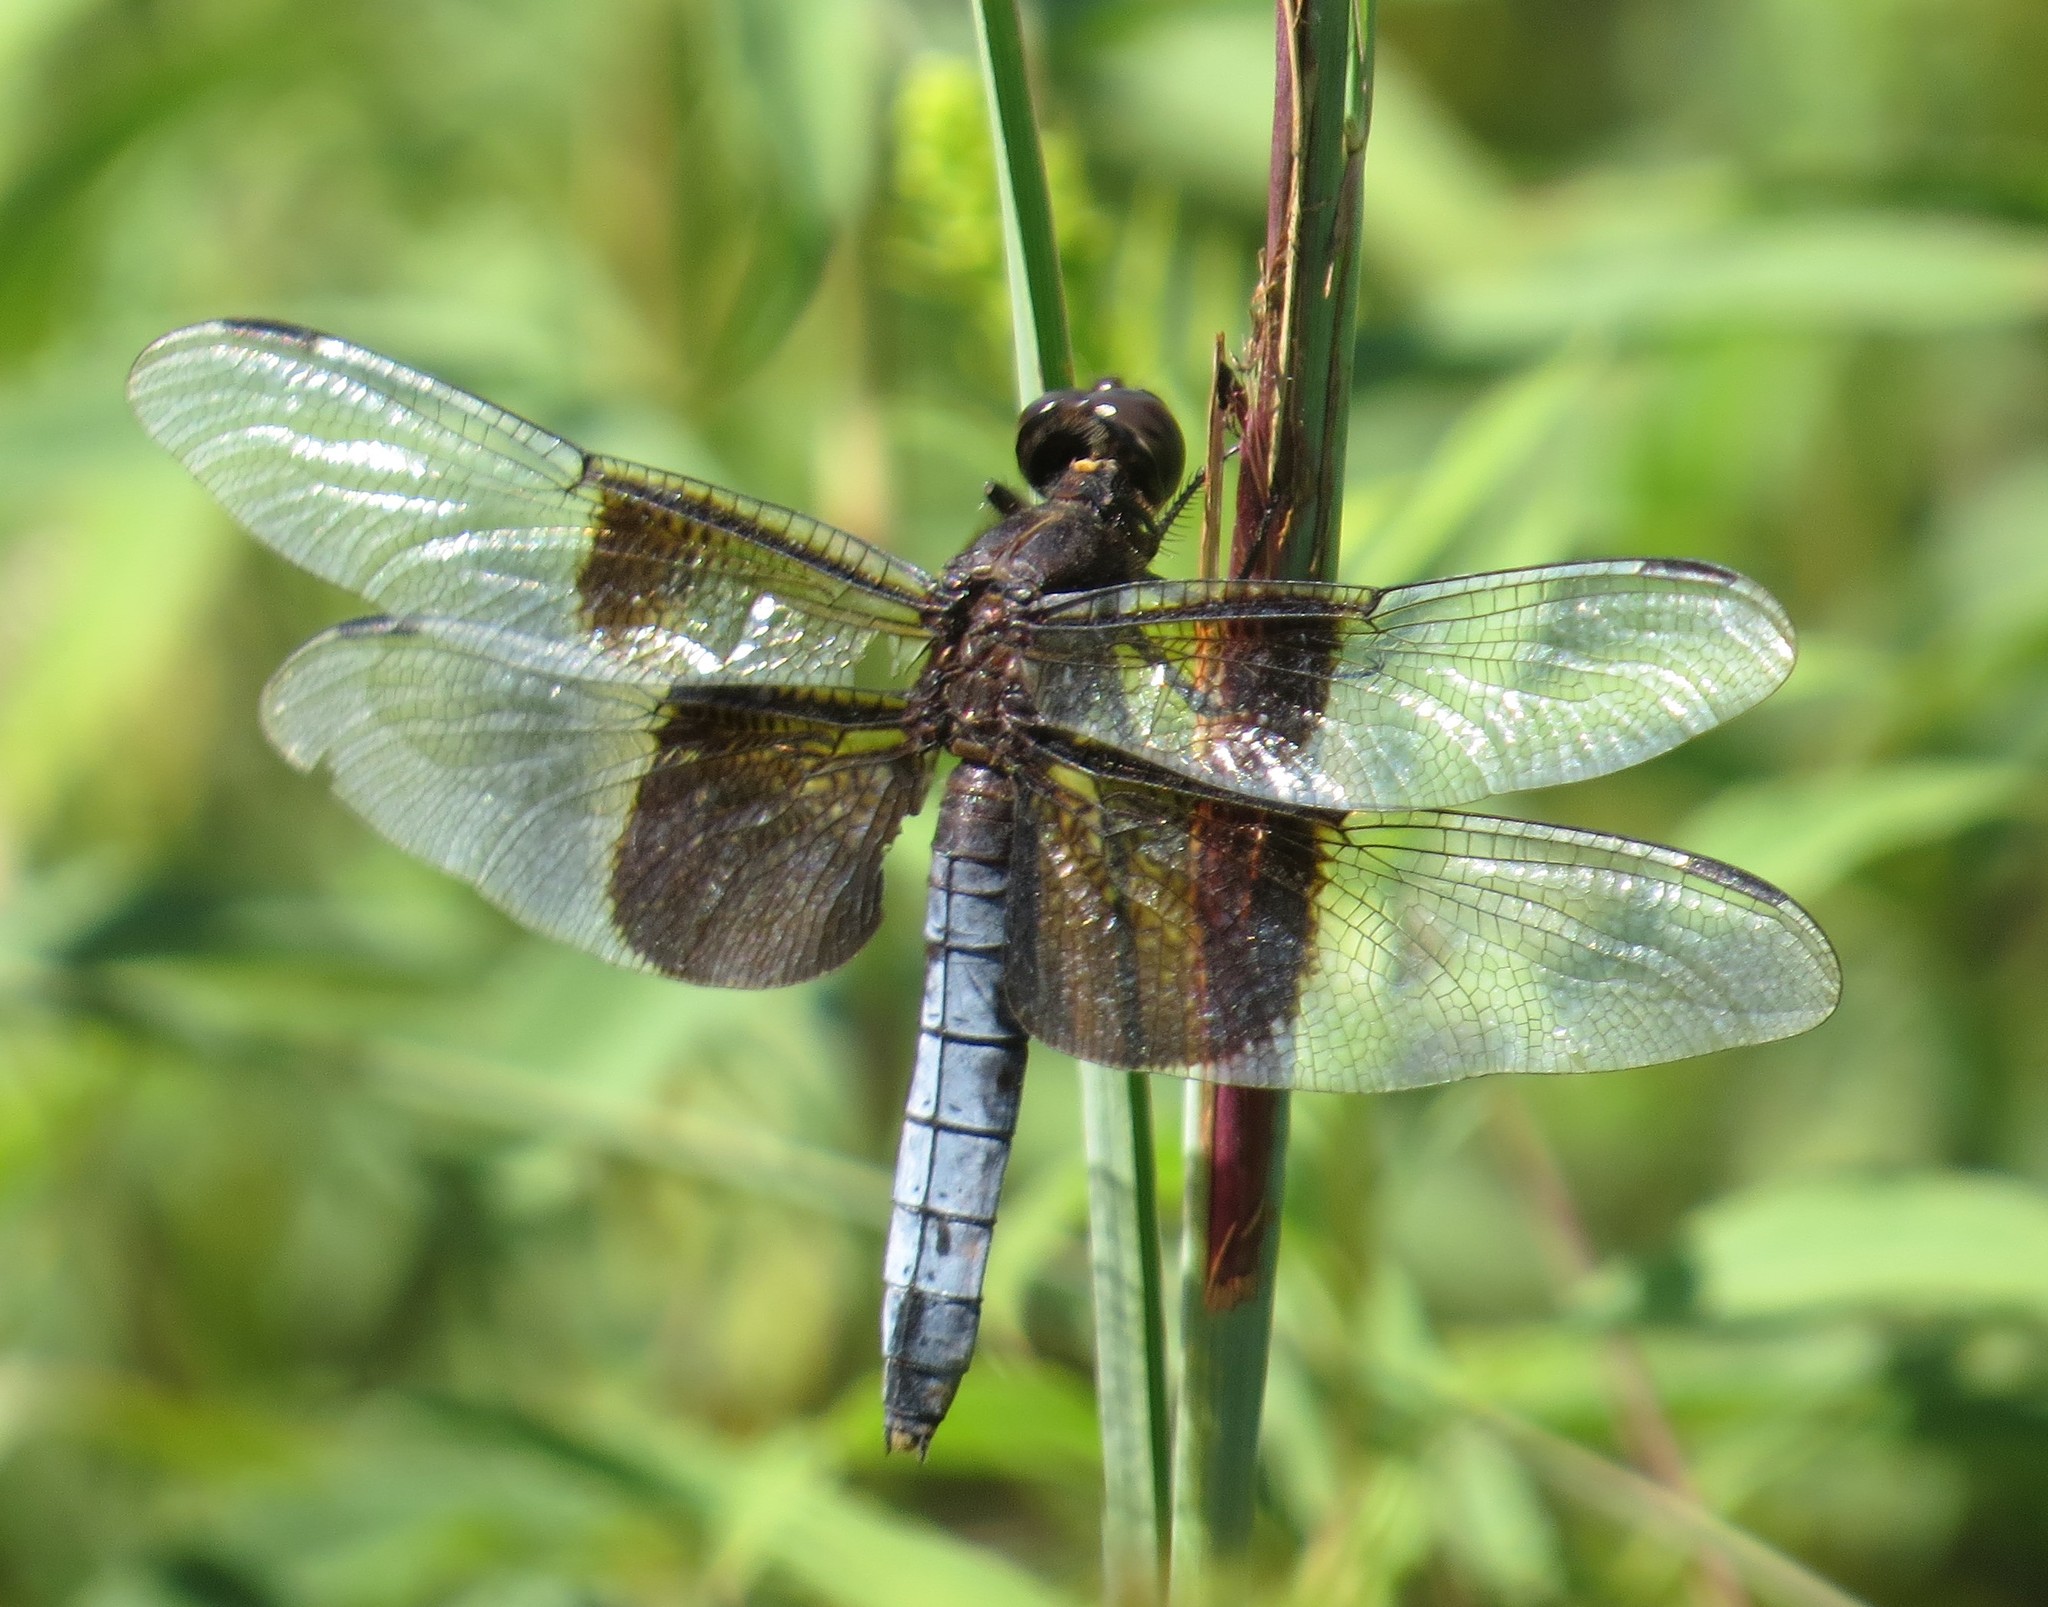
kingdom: Animalia
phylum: Arthropoda
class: Insecta
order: Odonata
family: Libellulidae
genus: Libellula
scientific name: Libellula luctuosa
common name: Widow skimmer
